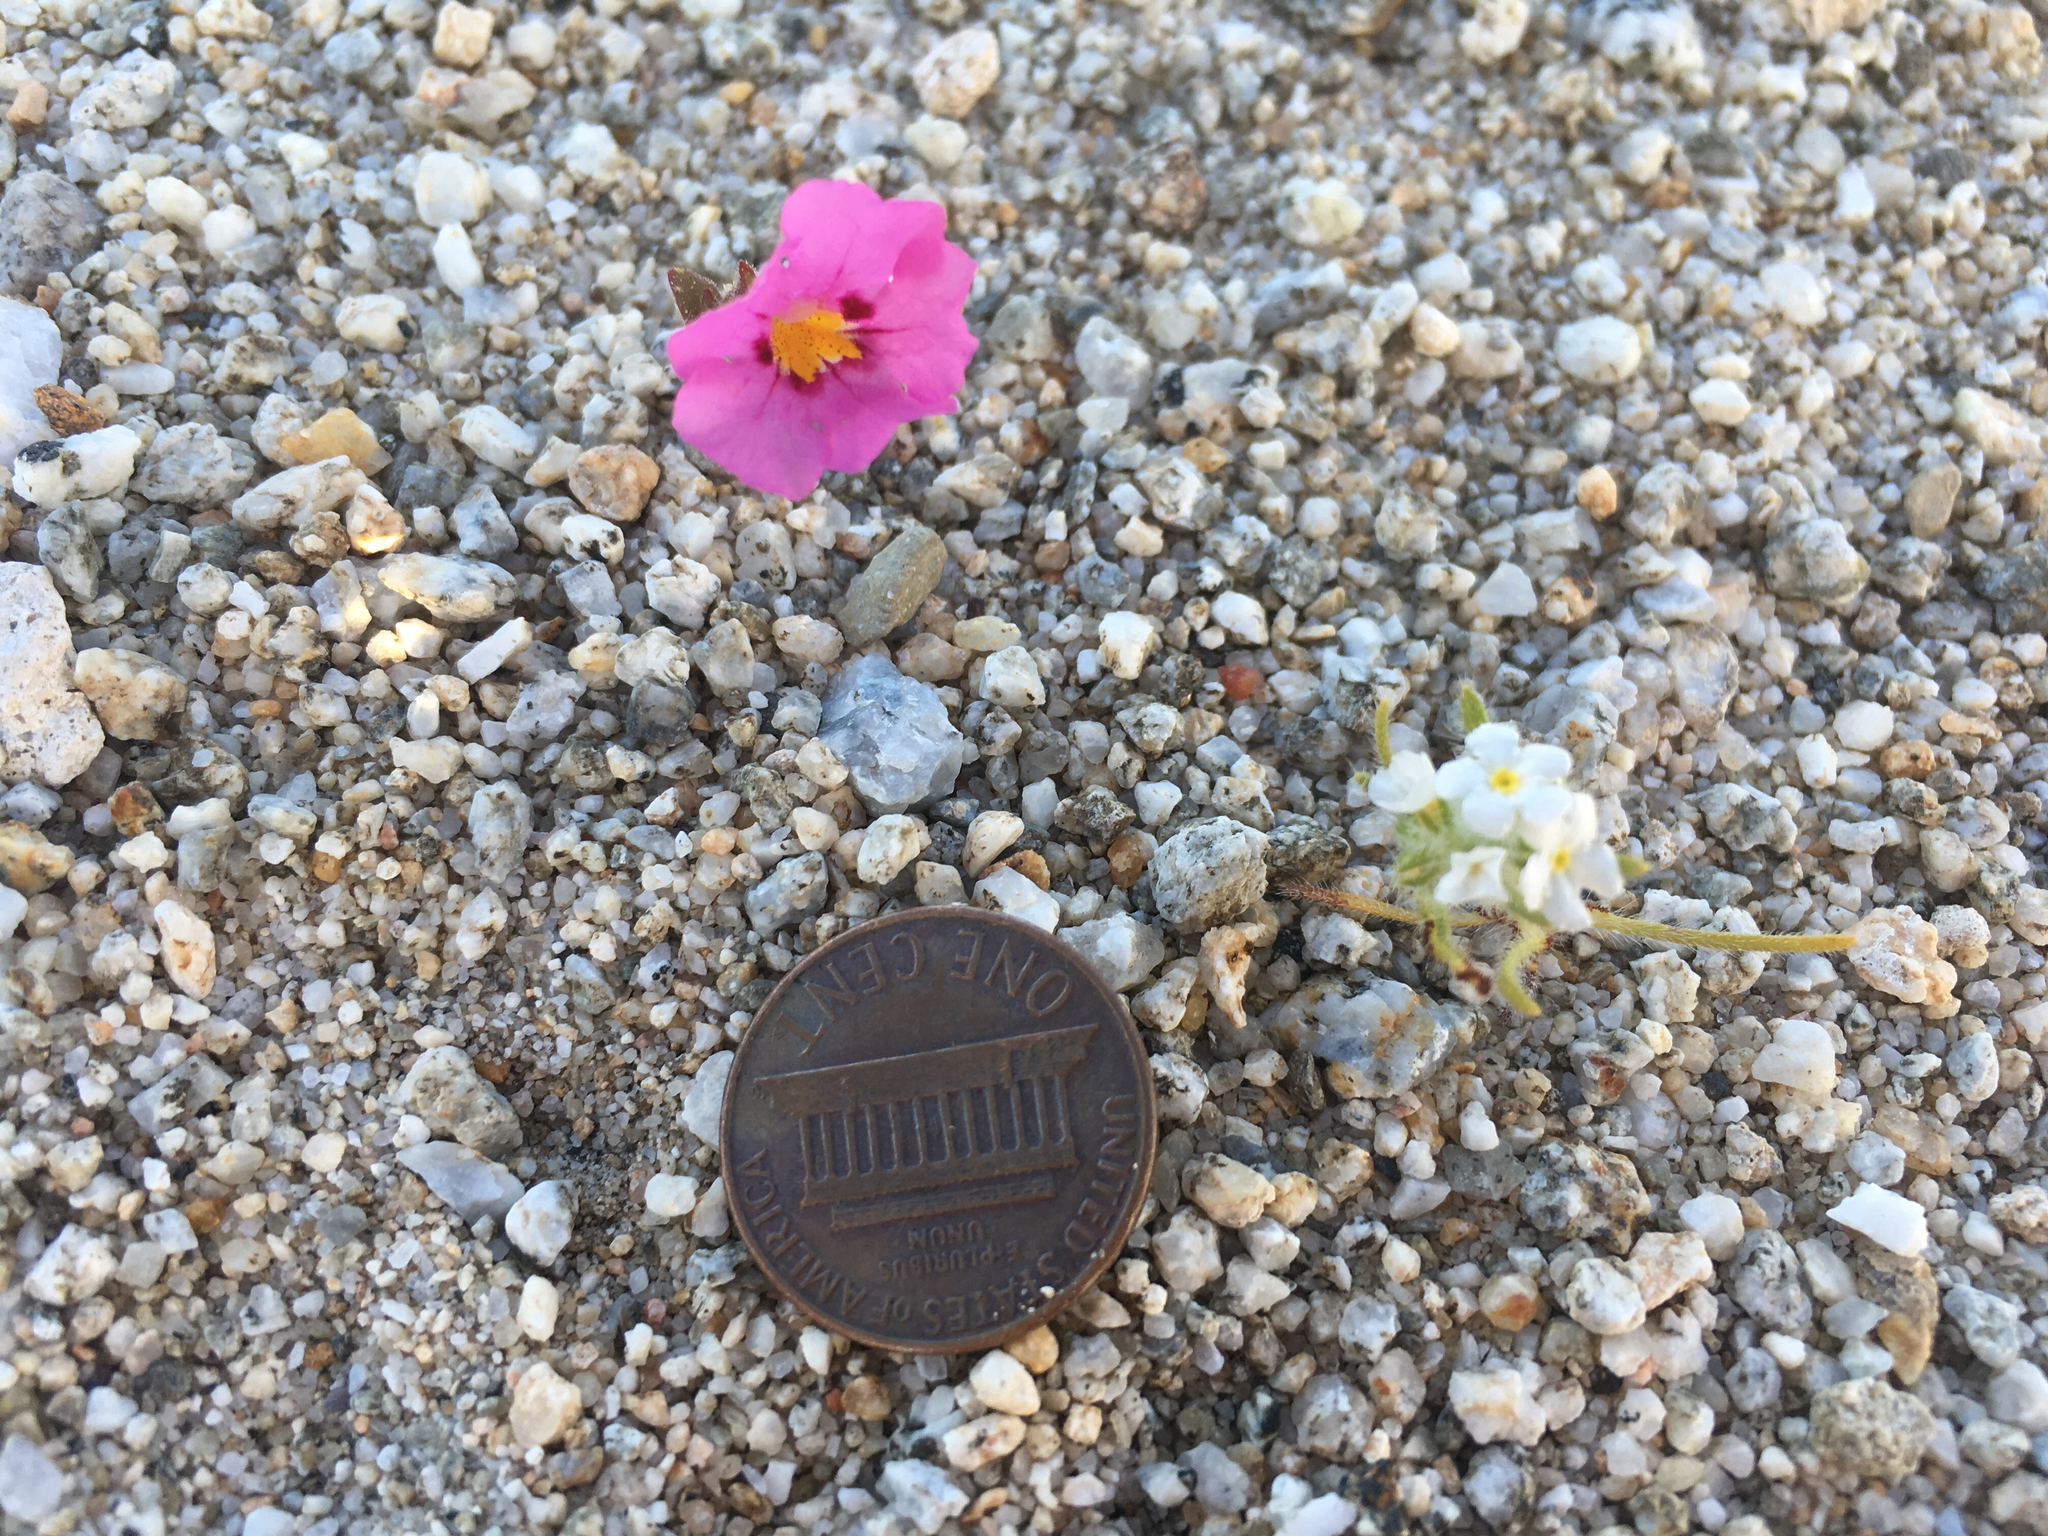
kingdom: Plantae
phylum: Tracheophyta
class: Magnoliopsida
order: Lamiales
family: Phrymaceae
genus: Diplacus
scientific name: Diplacus bigelovii
